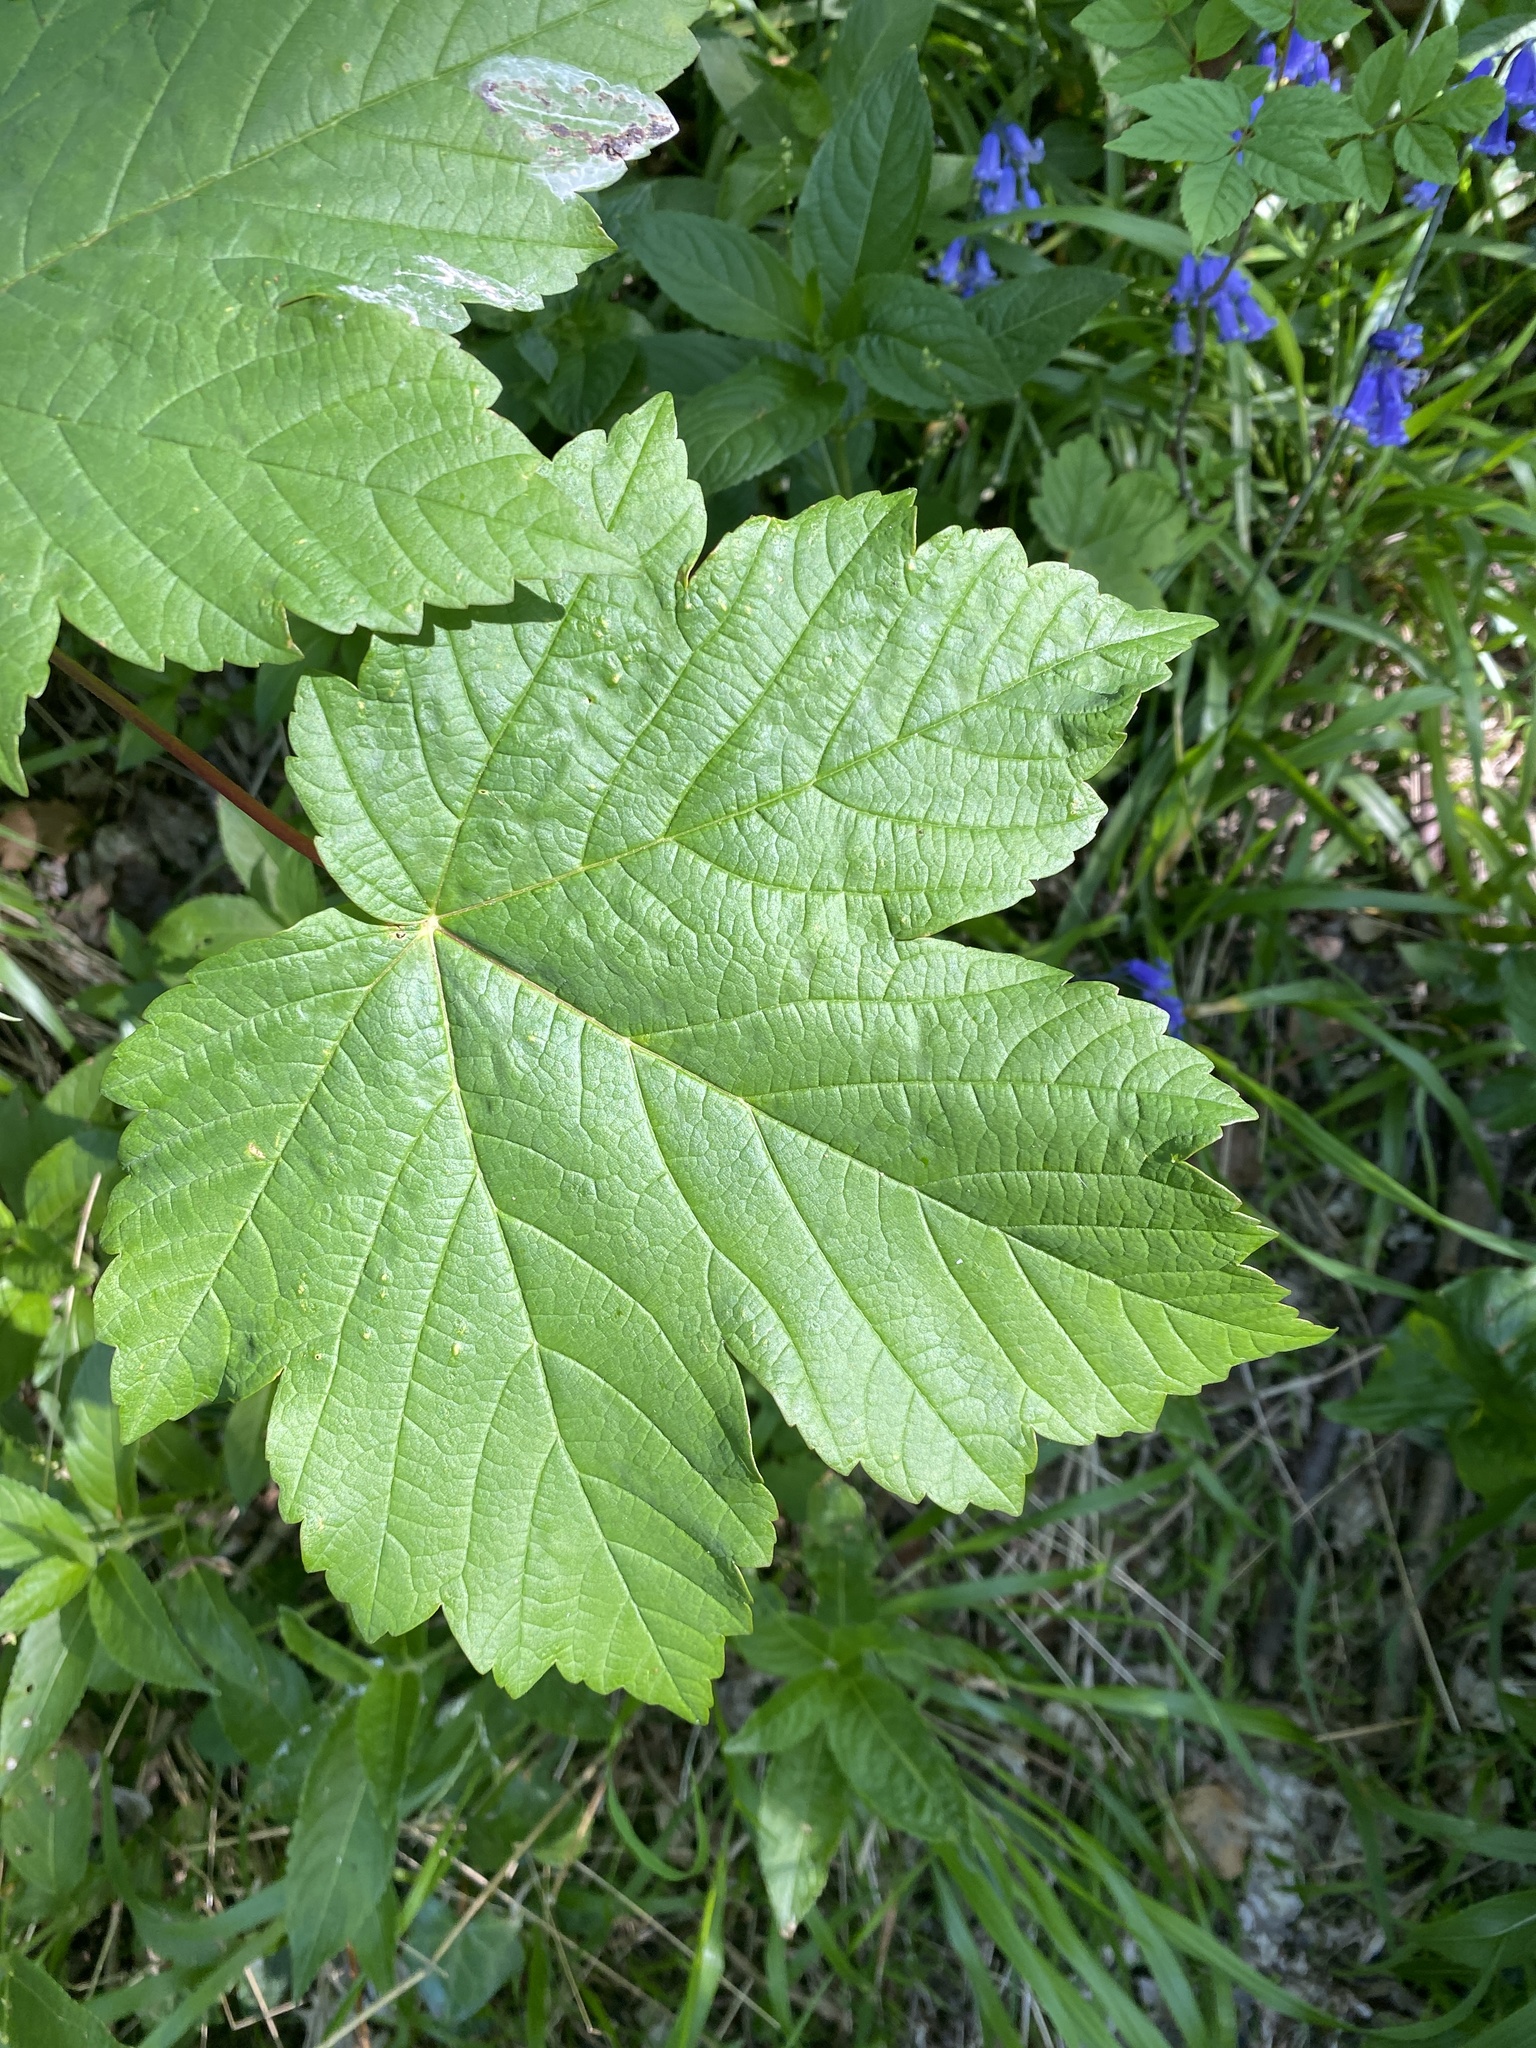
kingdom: Plantae
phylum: Tracheophyta
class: Magnoliopsida
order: Sapindales
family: Sapindaceae
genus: Acer
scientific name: Acer pseudoplatanus
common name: Sycamore
